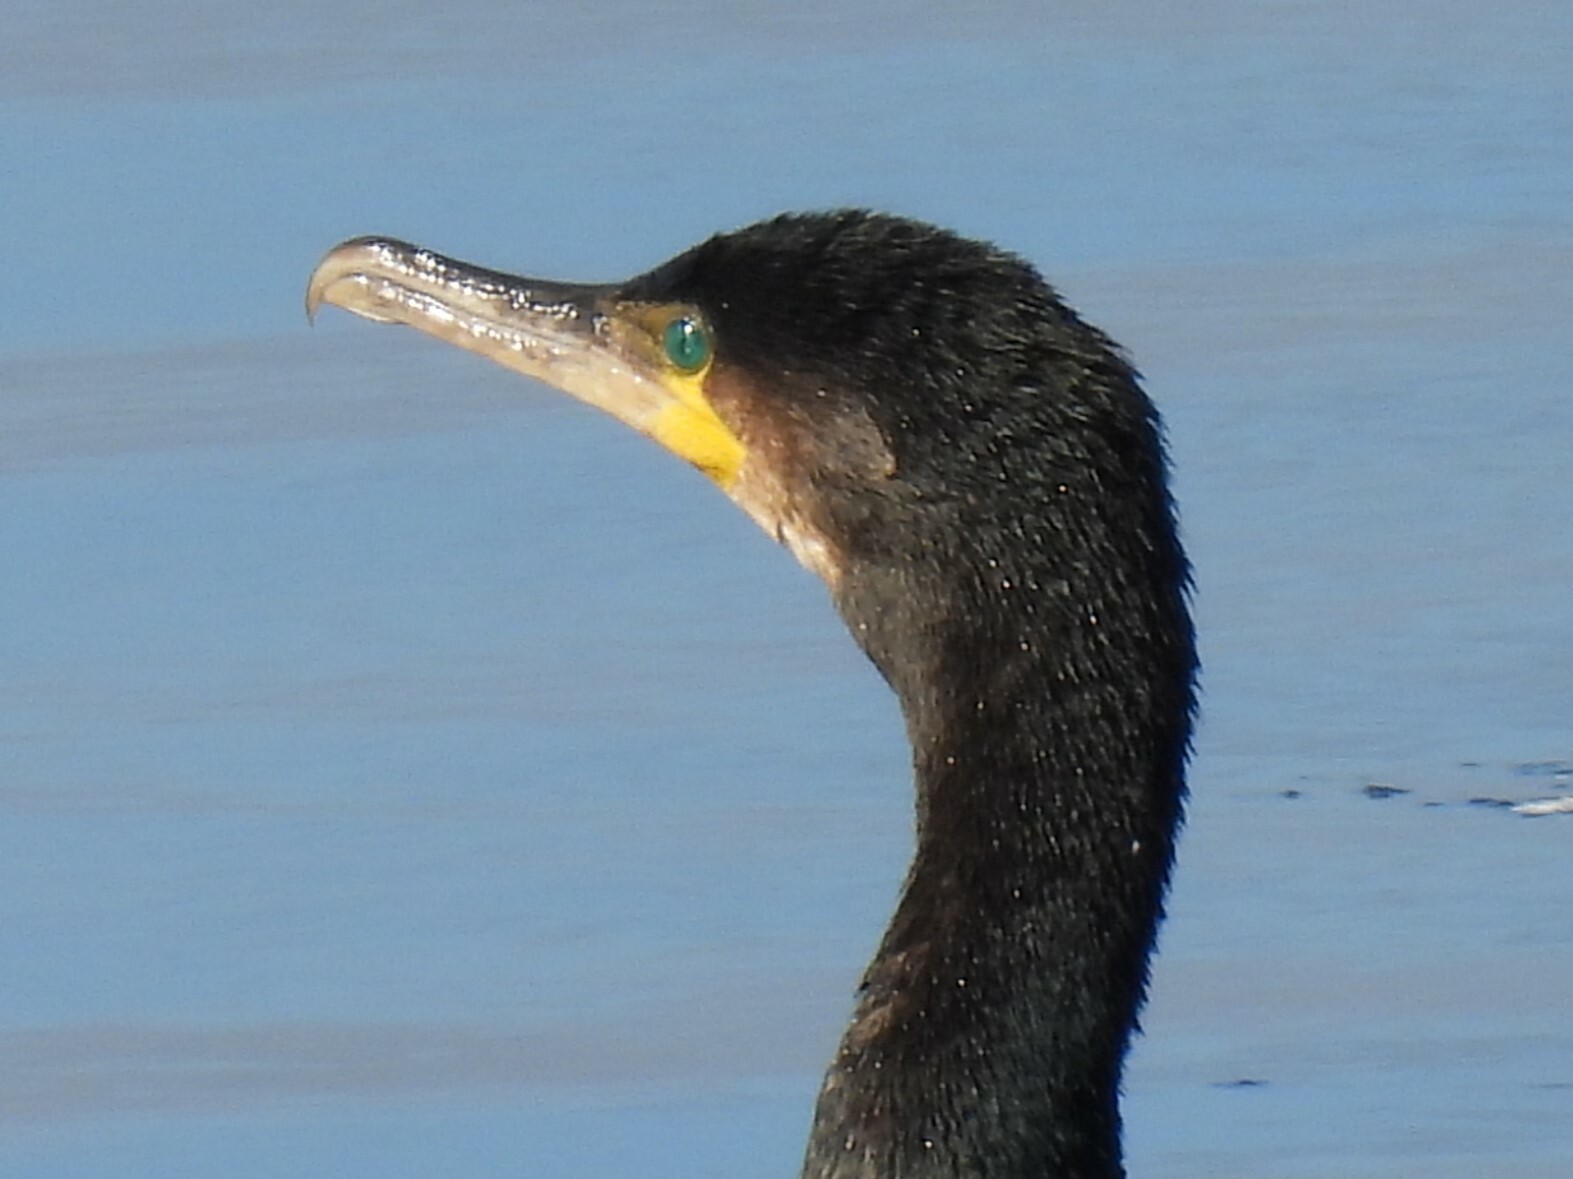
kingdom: Animalia
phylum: Chordata
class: Aves
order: Suliformes
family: Phalacrocoracidae
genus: Phalacrocorax
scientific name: Phalacrocorax carbo
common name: Great cormorant
